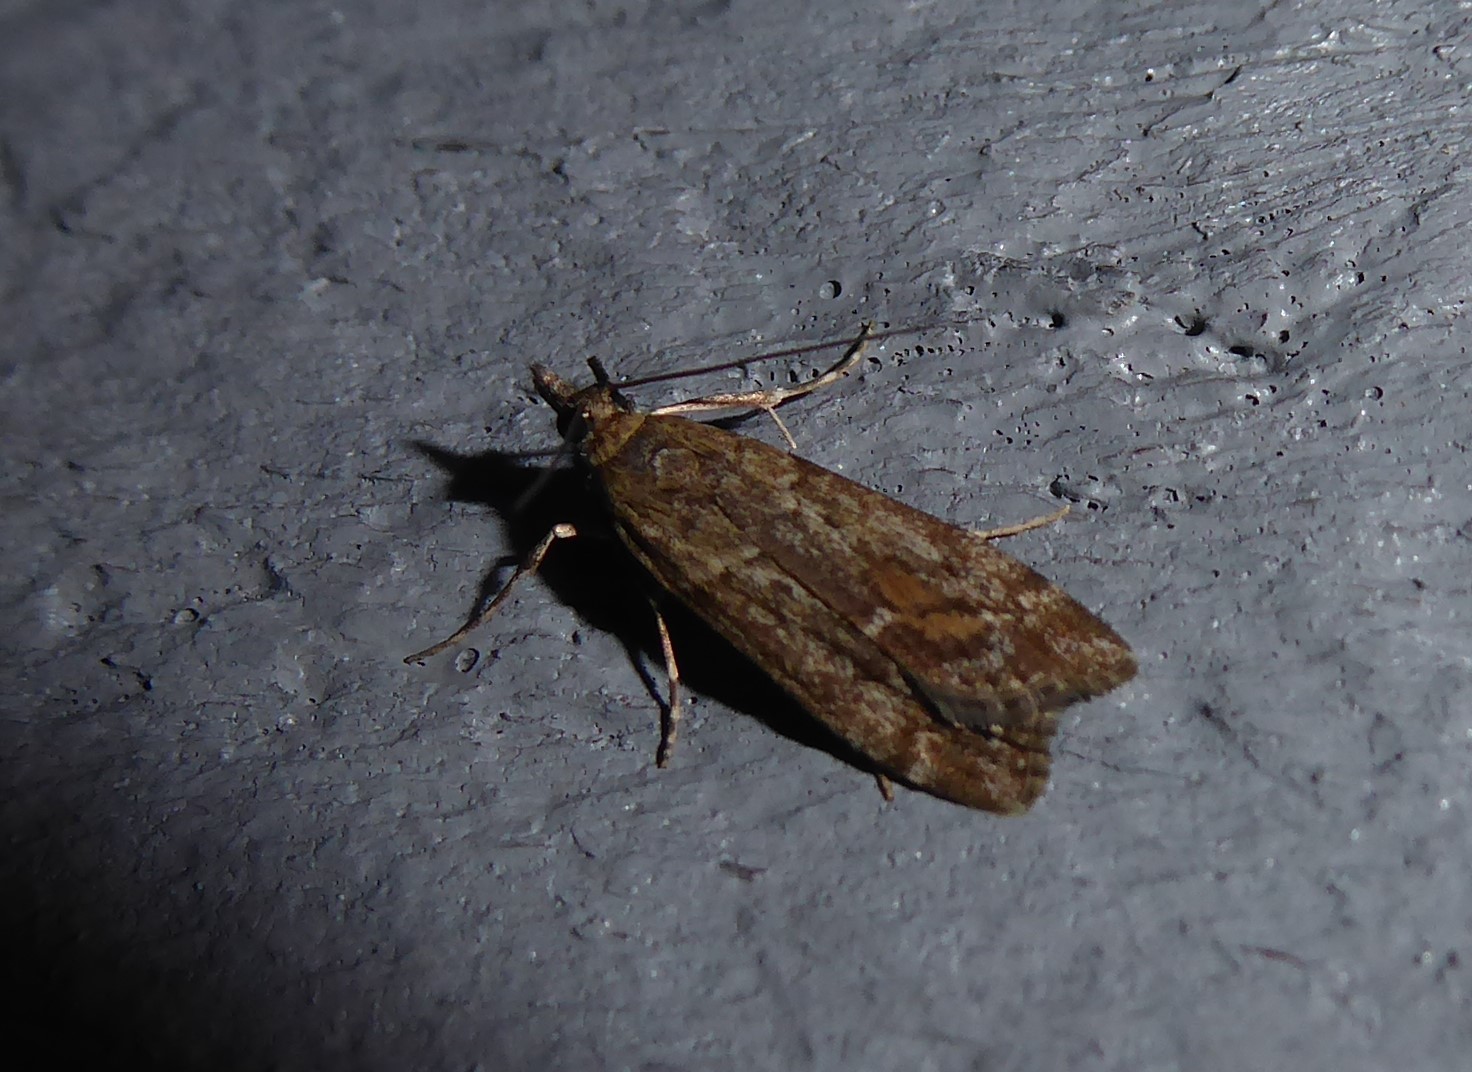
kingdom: Animalia
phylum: Arthropoda
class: Insecta
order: Lepidoptera
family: Crambidae
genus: Eudonia
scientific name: Eudonia submarginalis
